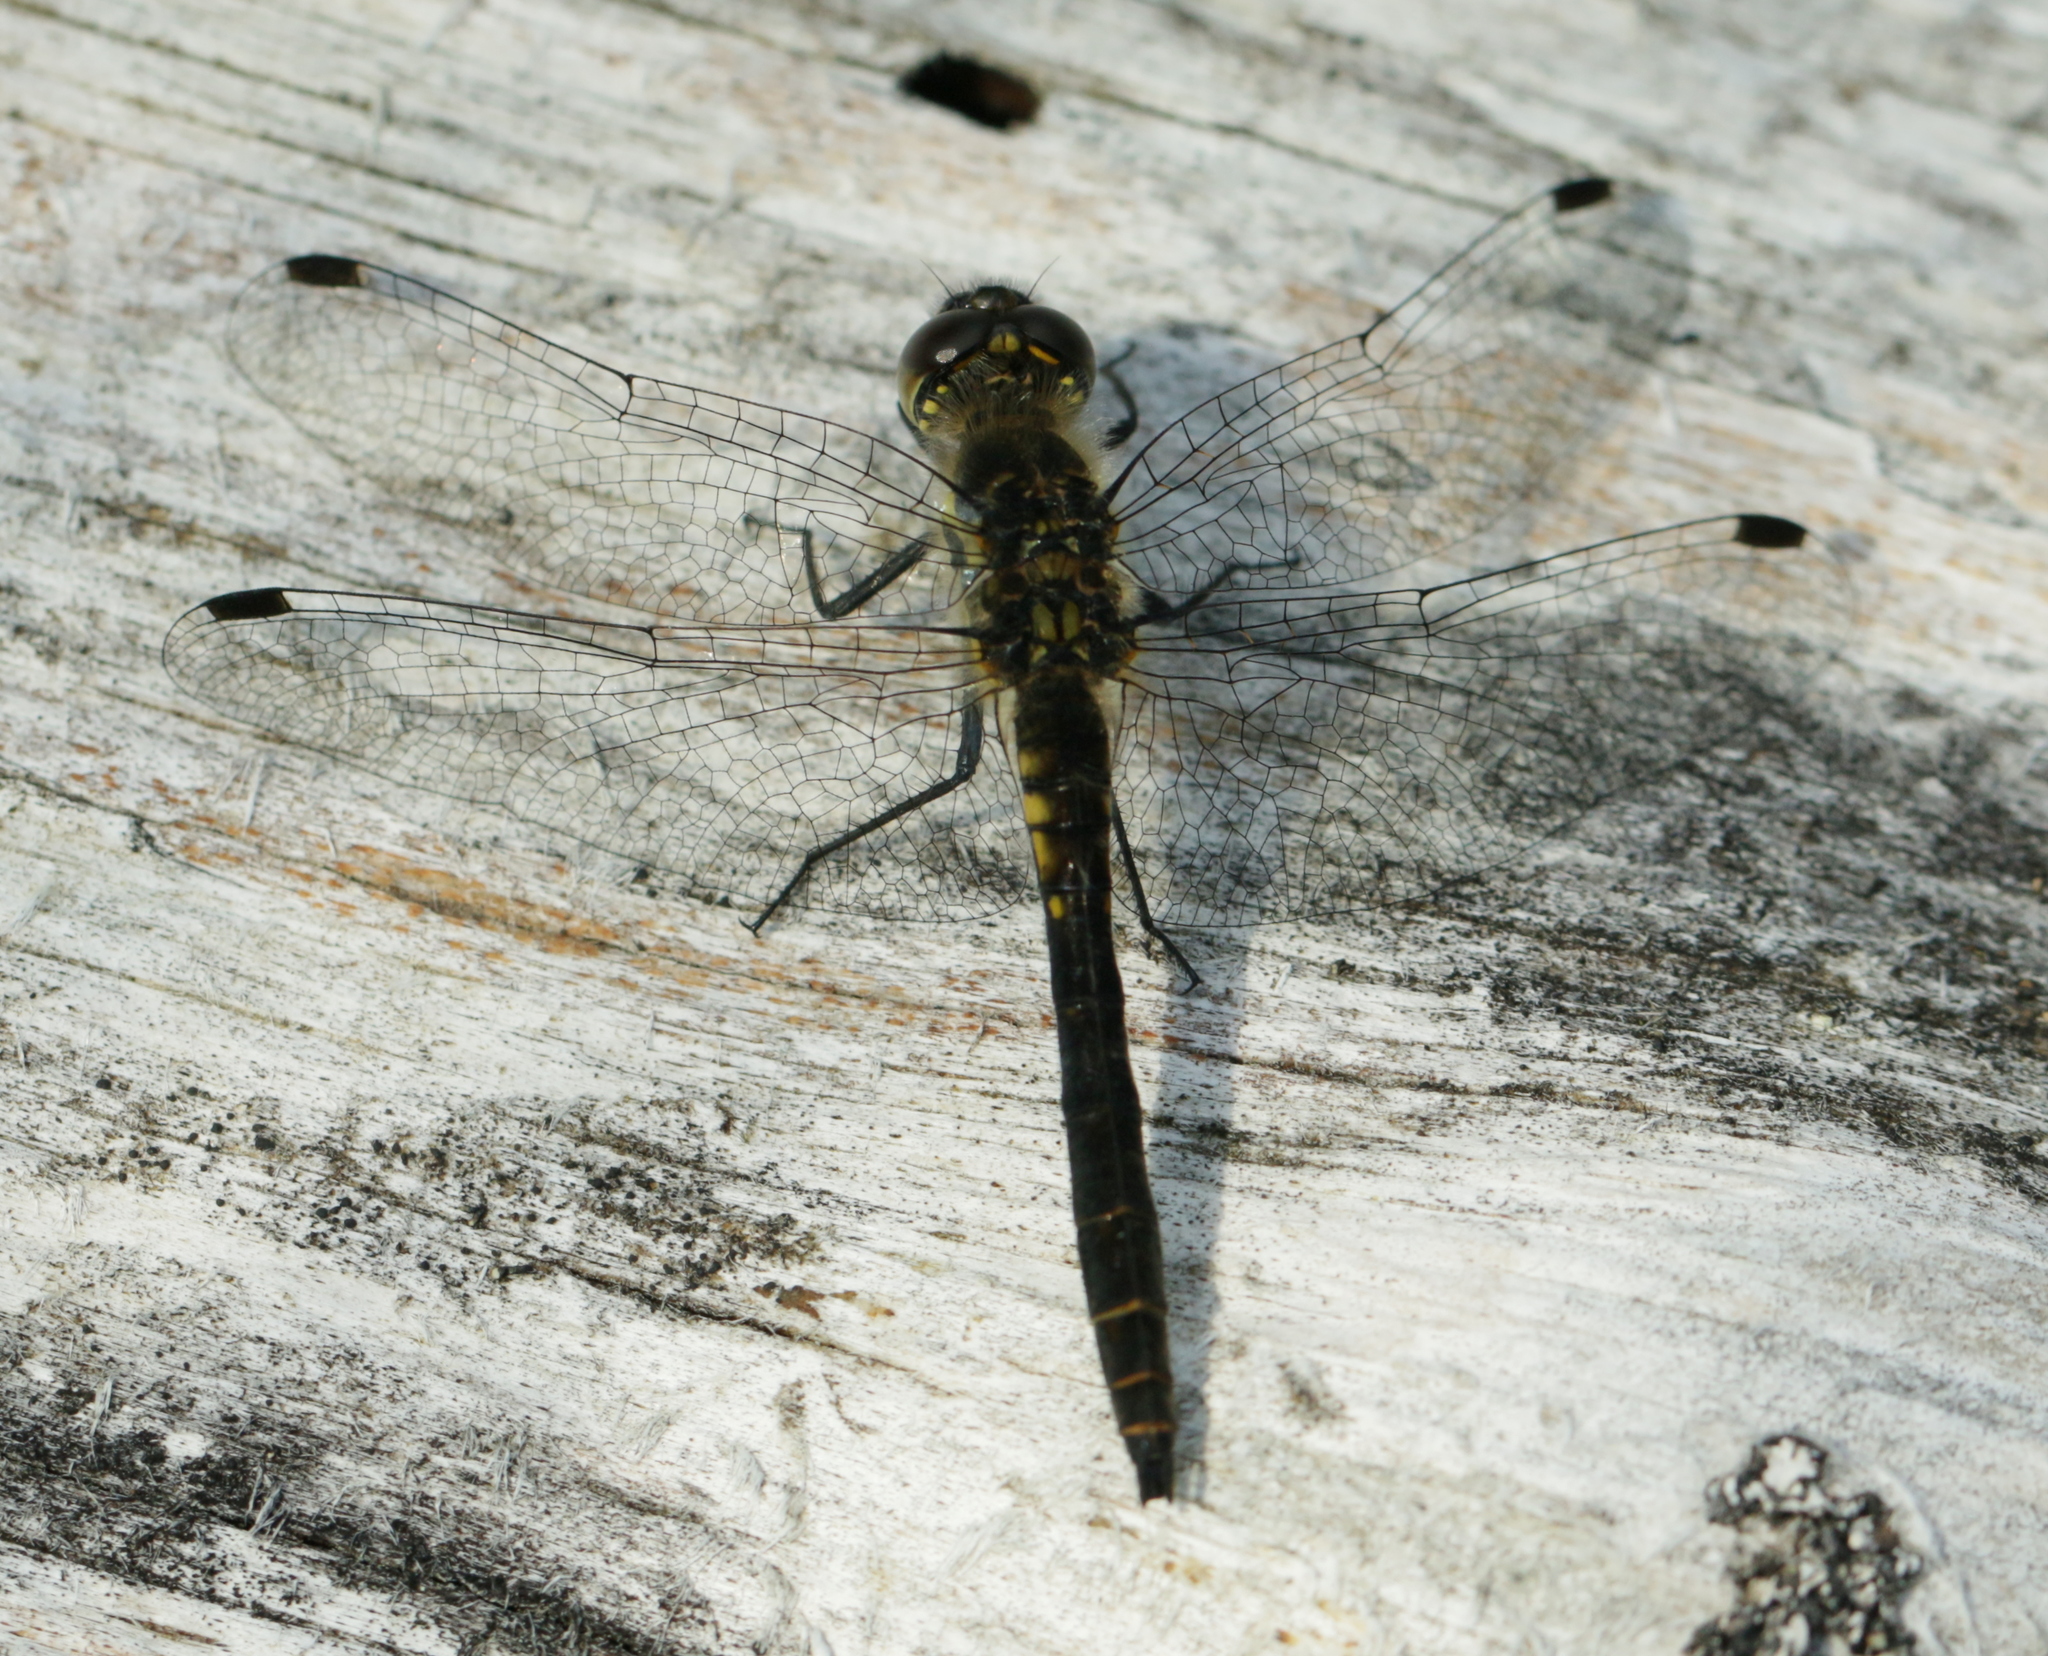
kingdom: Animalia
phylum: Arthropoda
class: Insecta
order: Odonata
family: Libellulidae
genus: Sympetrum
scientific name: Sympetrum danae
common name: Black darter
